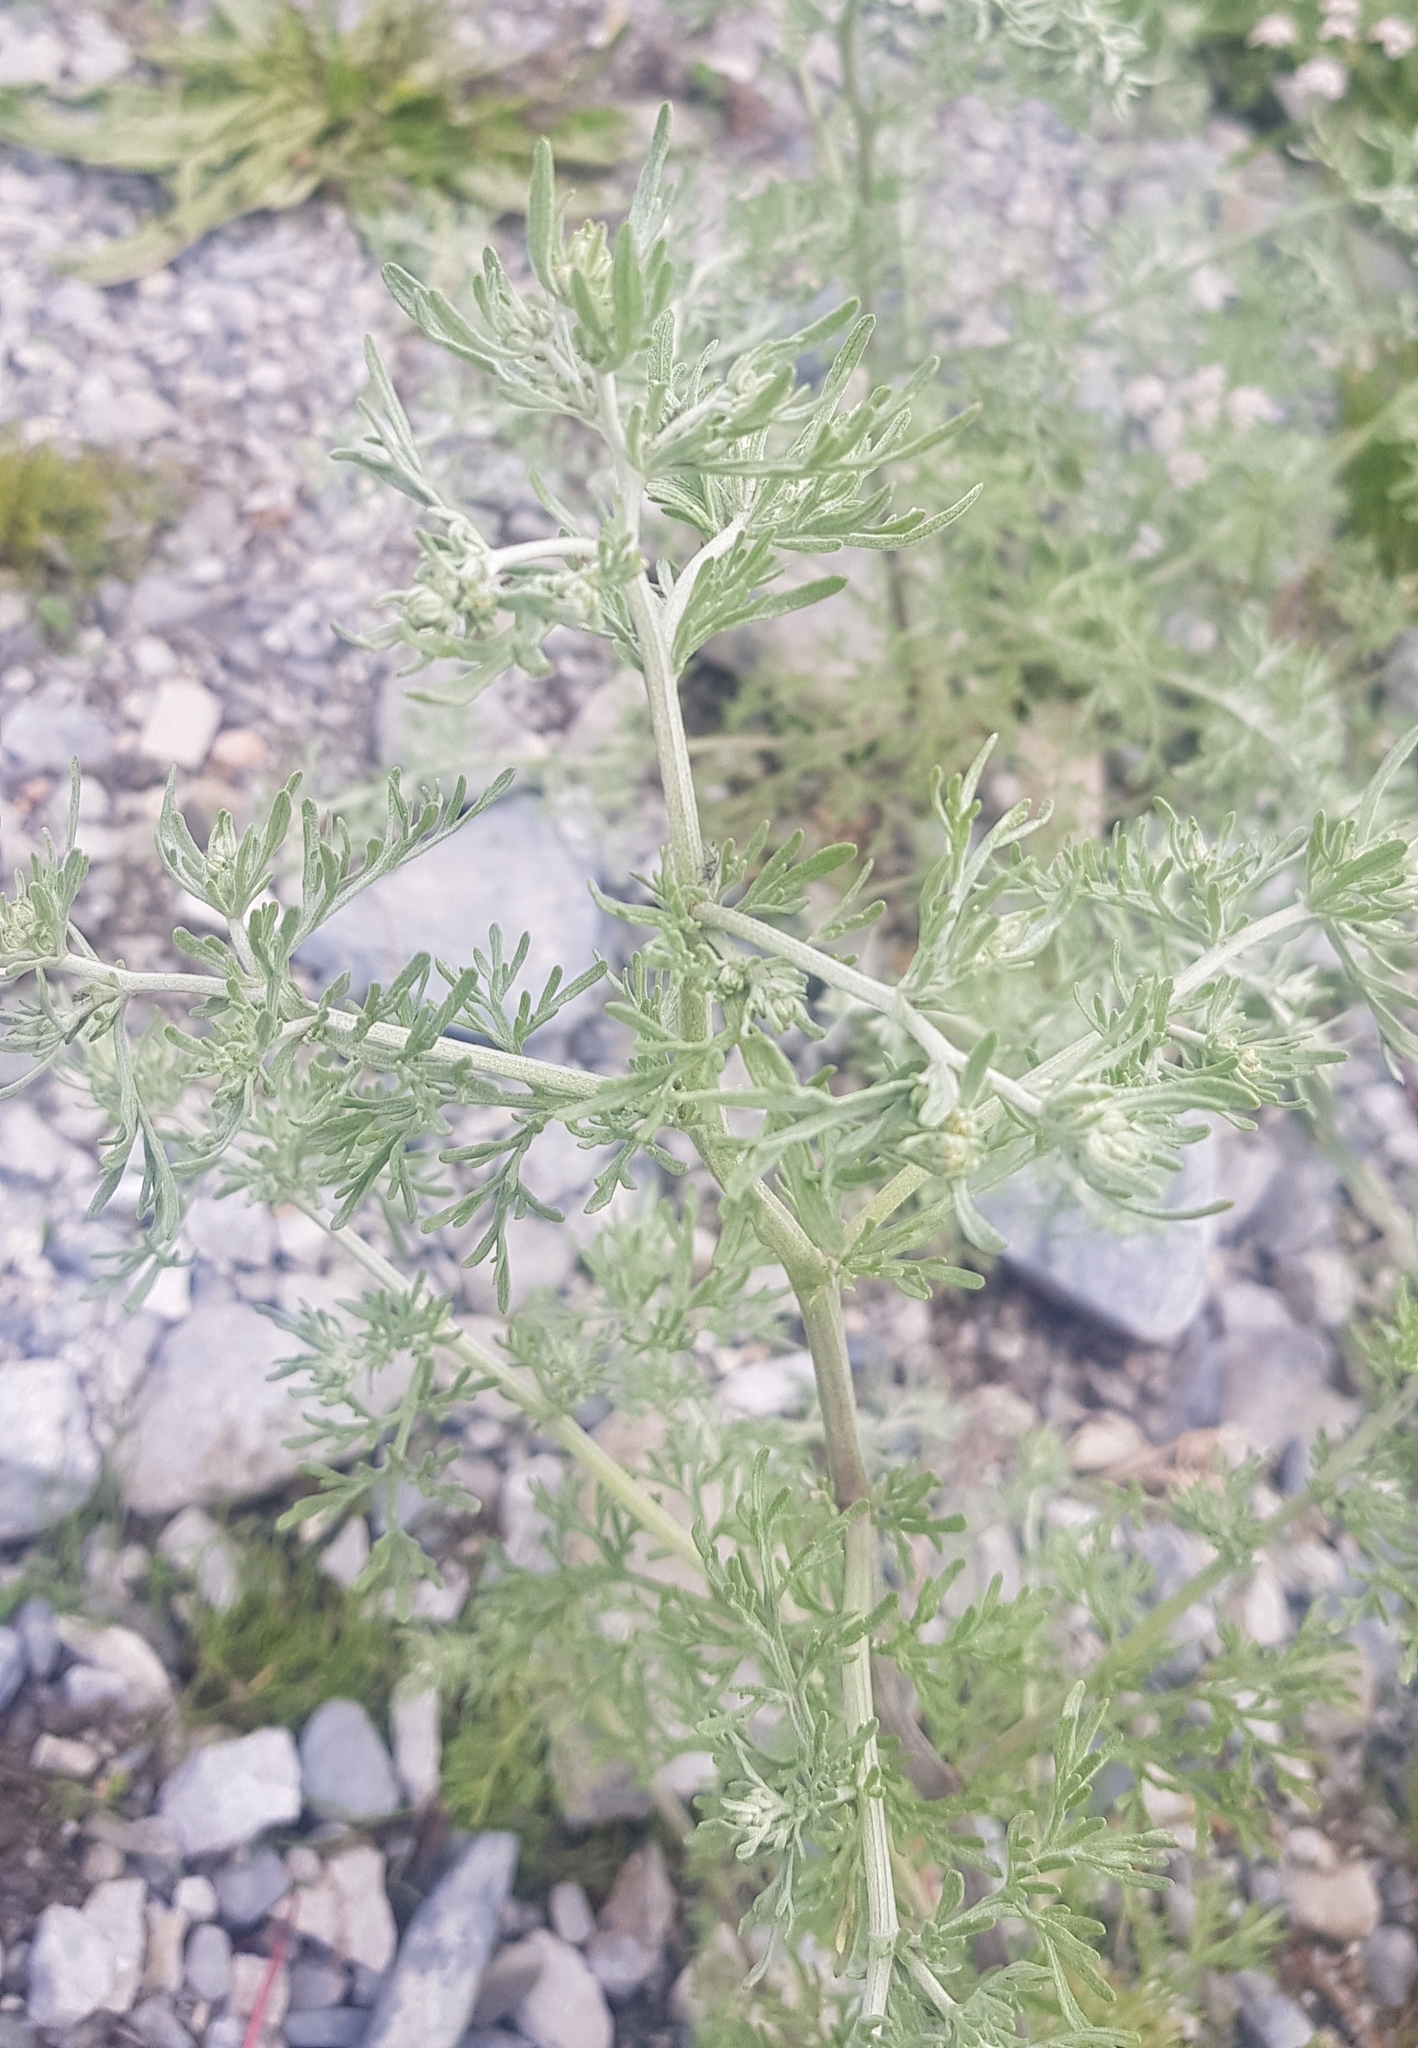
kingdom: Plantae
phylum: Tracheophyta
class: Magnoliopsida
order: Asterales
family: Asteraceae
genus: Artemisia
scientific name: Artemisia sieversiana
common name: Sieversian wormwood
